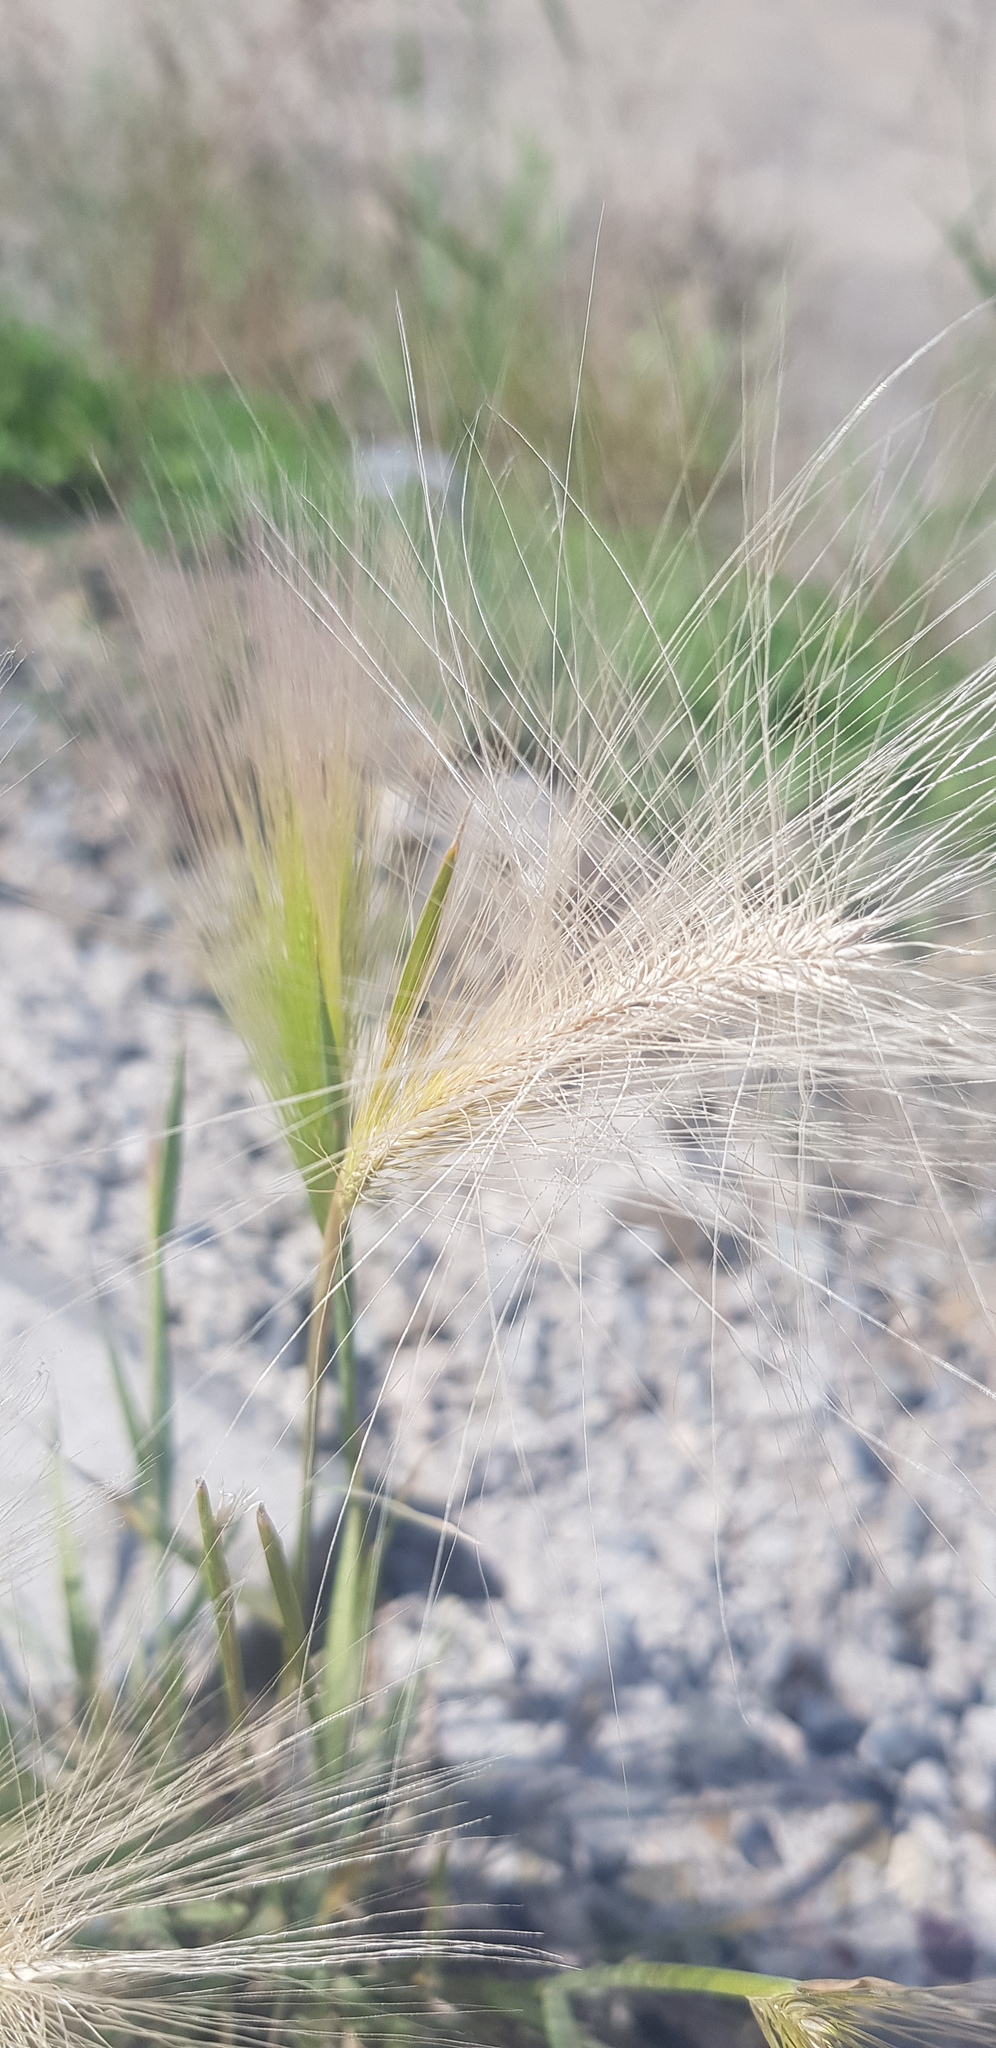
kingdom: Plantae
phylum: Tracheophyta
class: Liliopsida
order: Poales
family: Poaceae
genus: Hordeum
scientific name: Hordeum jubatum
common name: Foxtail barley
